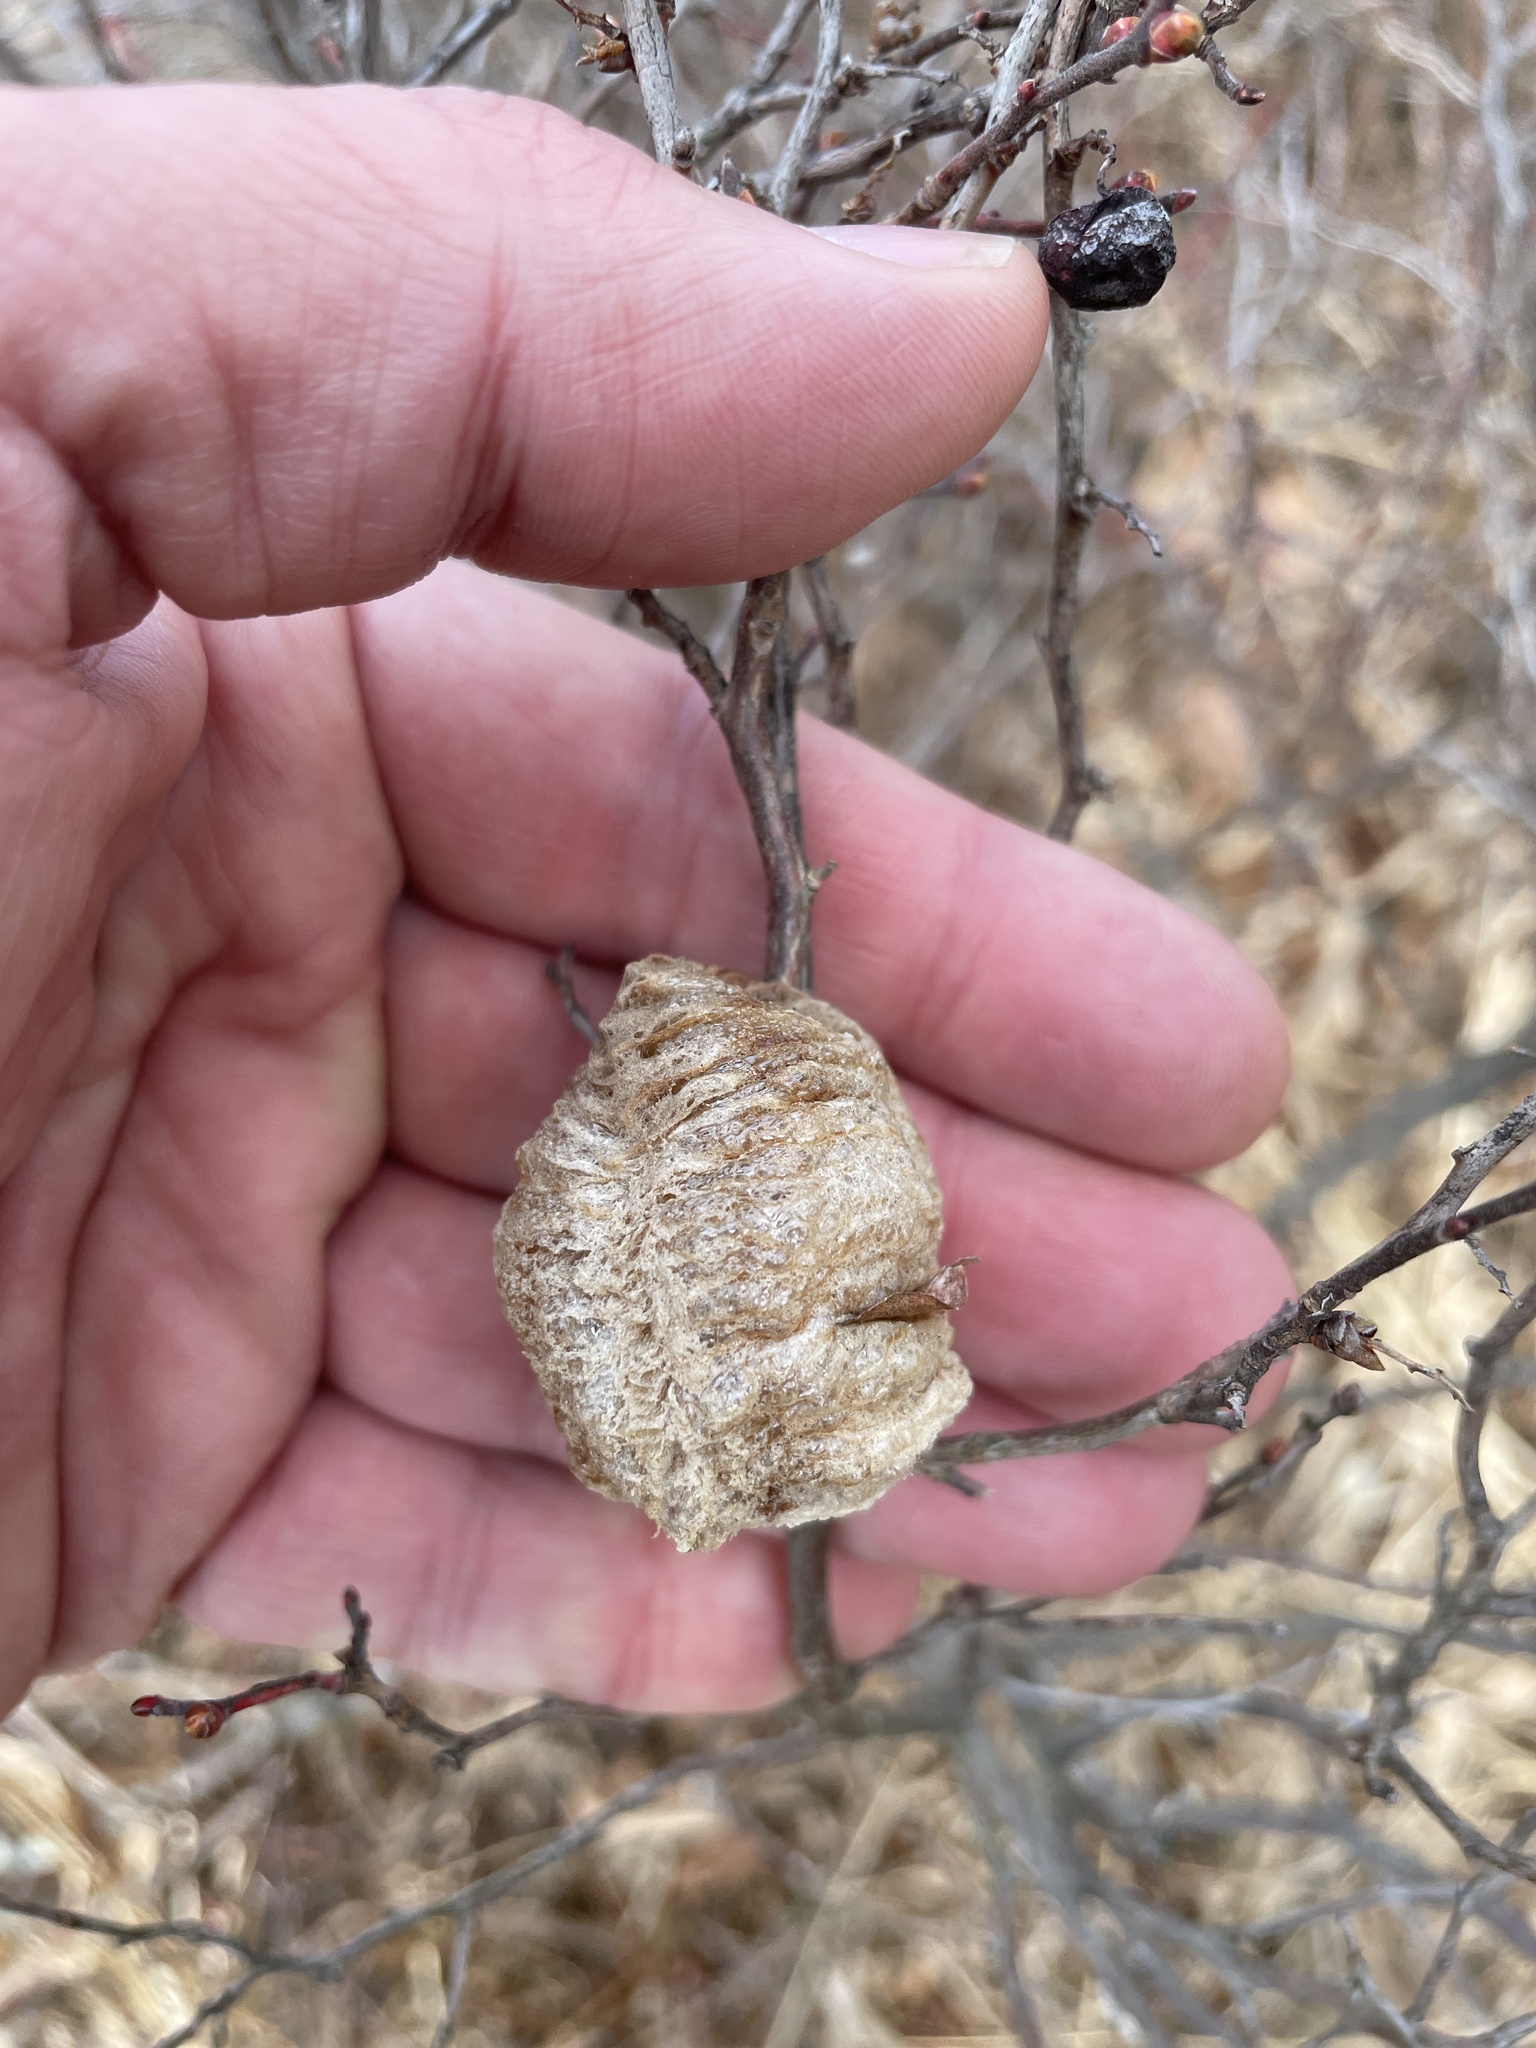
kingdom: Animalia
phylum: Arthropoda
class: Insecta
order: Mantodea
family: Mantidae
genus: Tenodera
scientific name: Tenodera sinensis
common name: Chinese mantis
